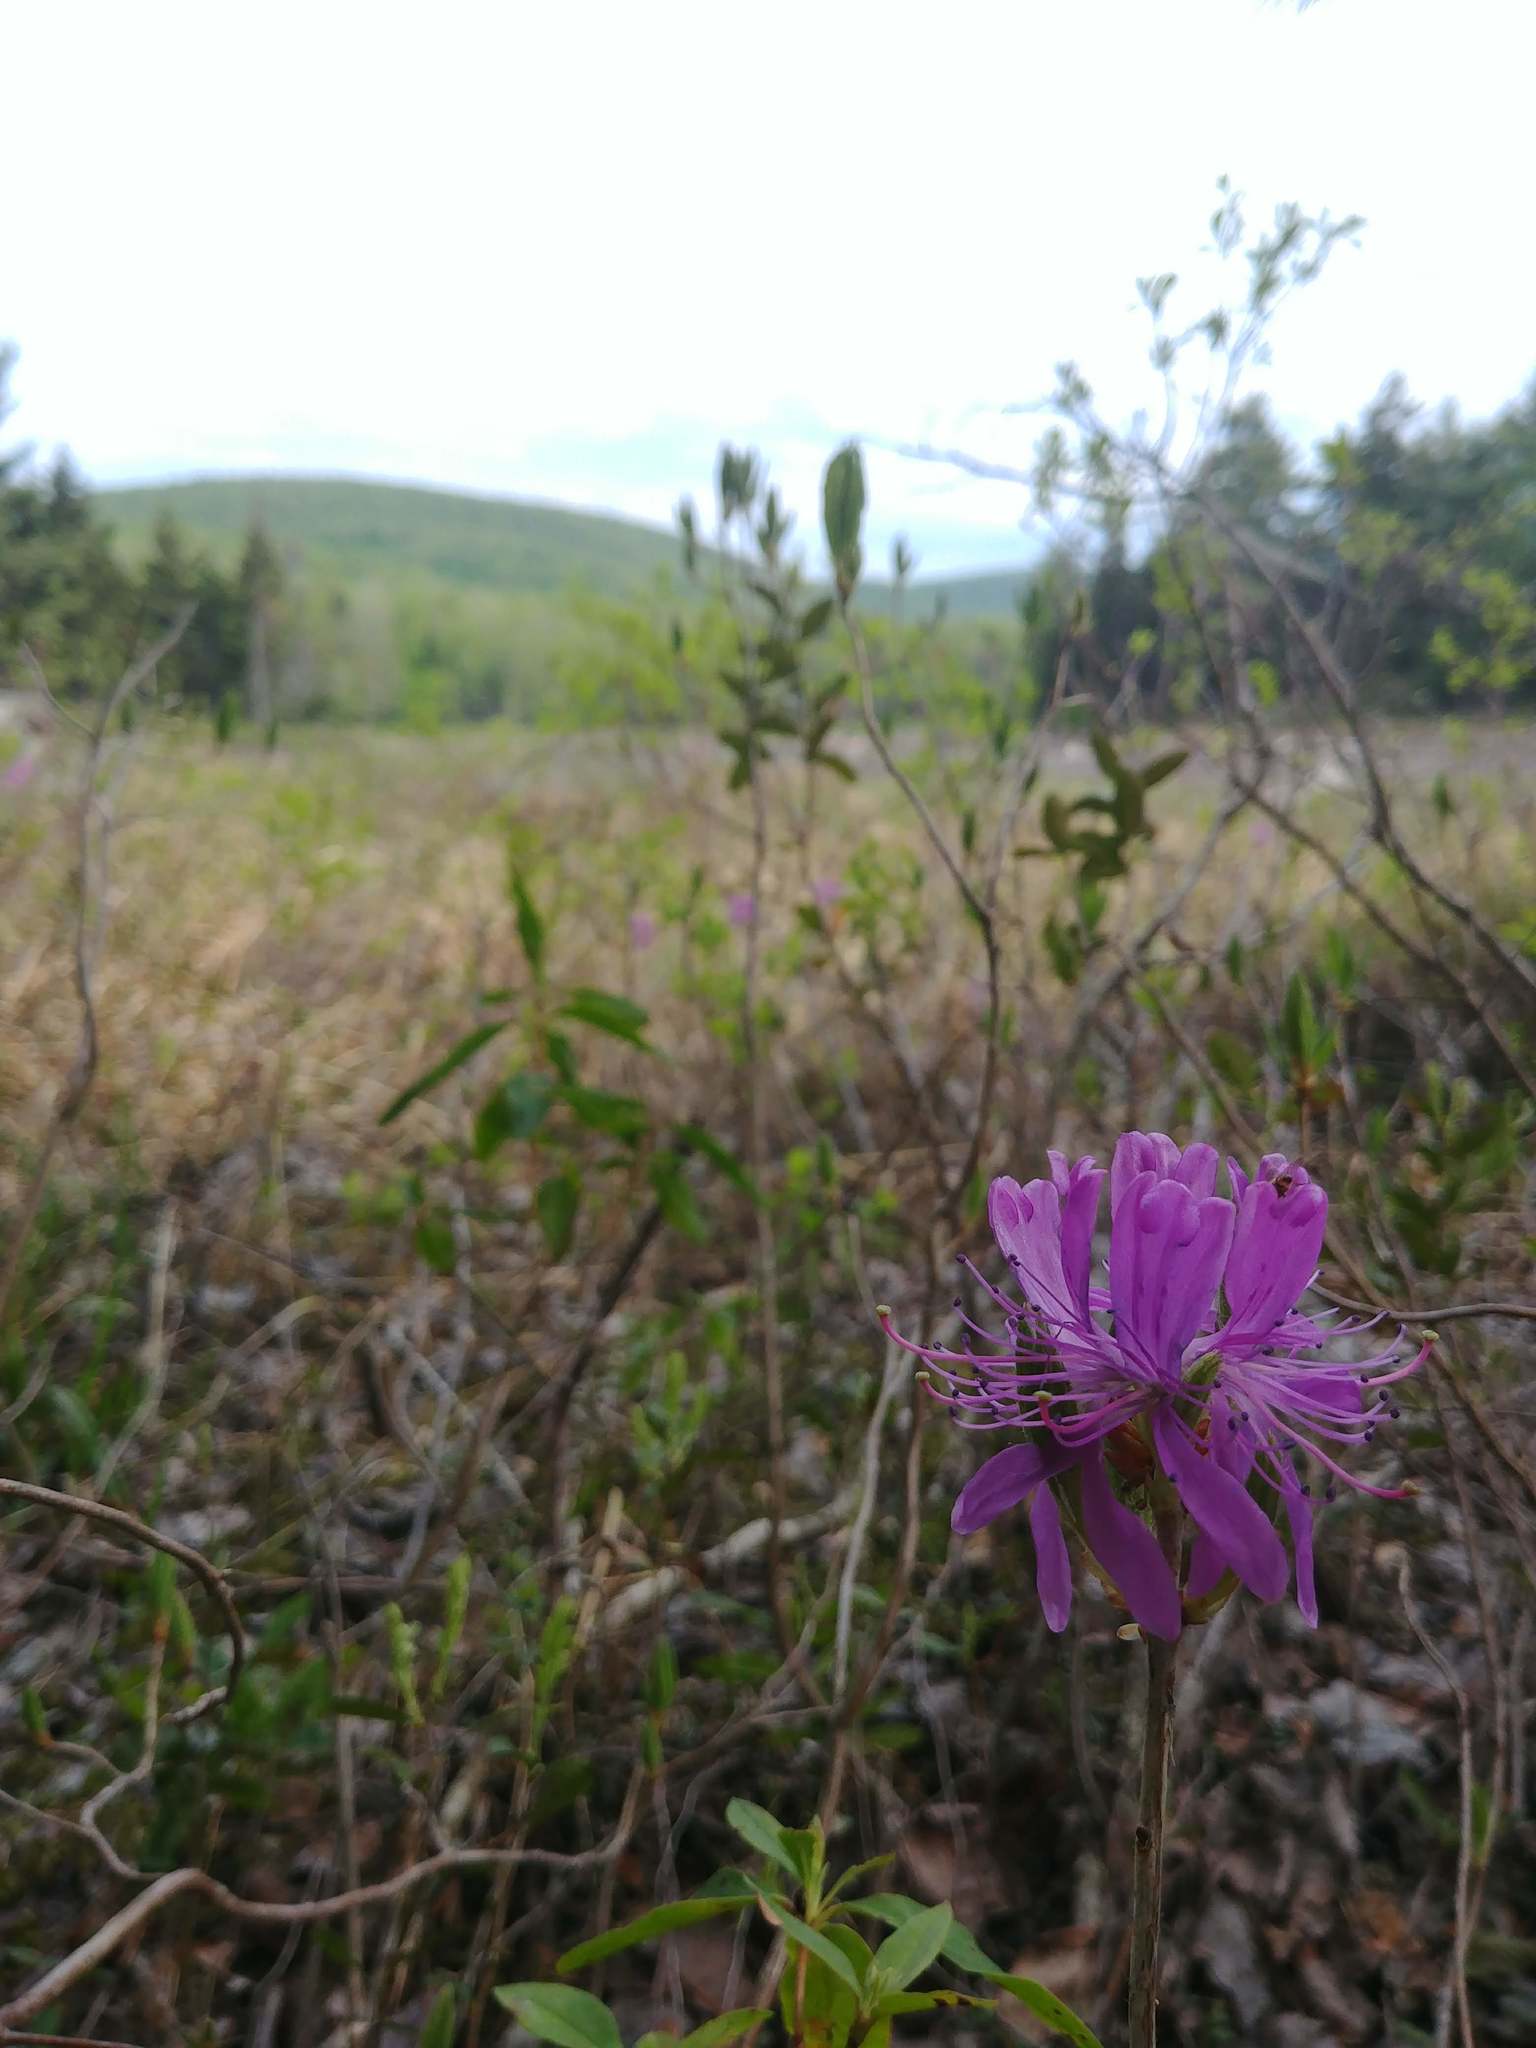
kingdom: Plantae
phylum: Tracheophyta
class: Magnoliopsida
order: Ericales
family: Ericaceae
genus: Rhododendron
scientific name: Rhododendron canadense
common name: Rhodora
